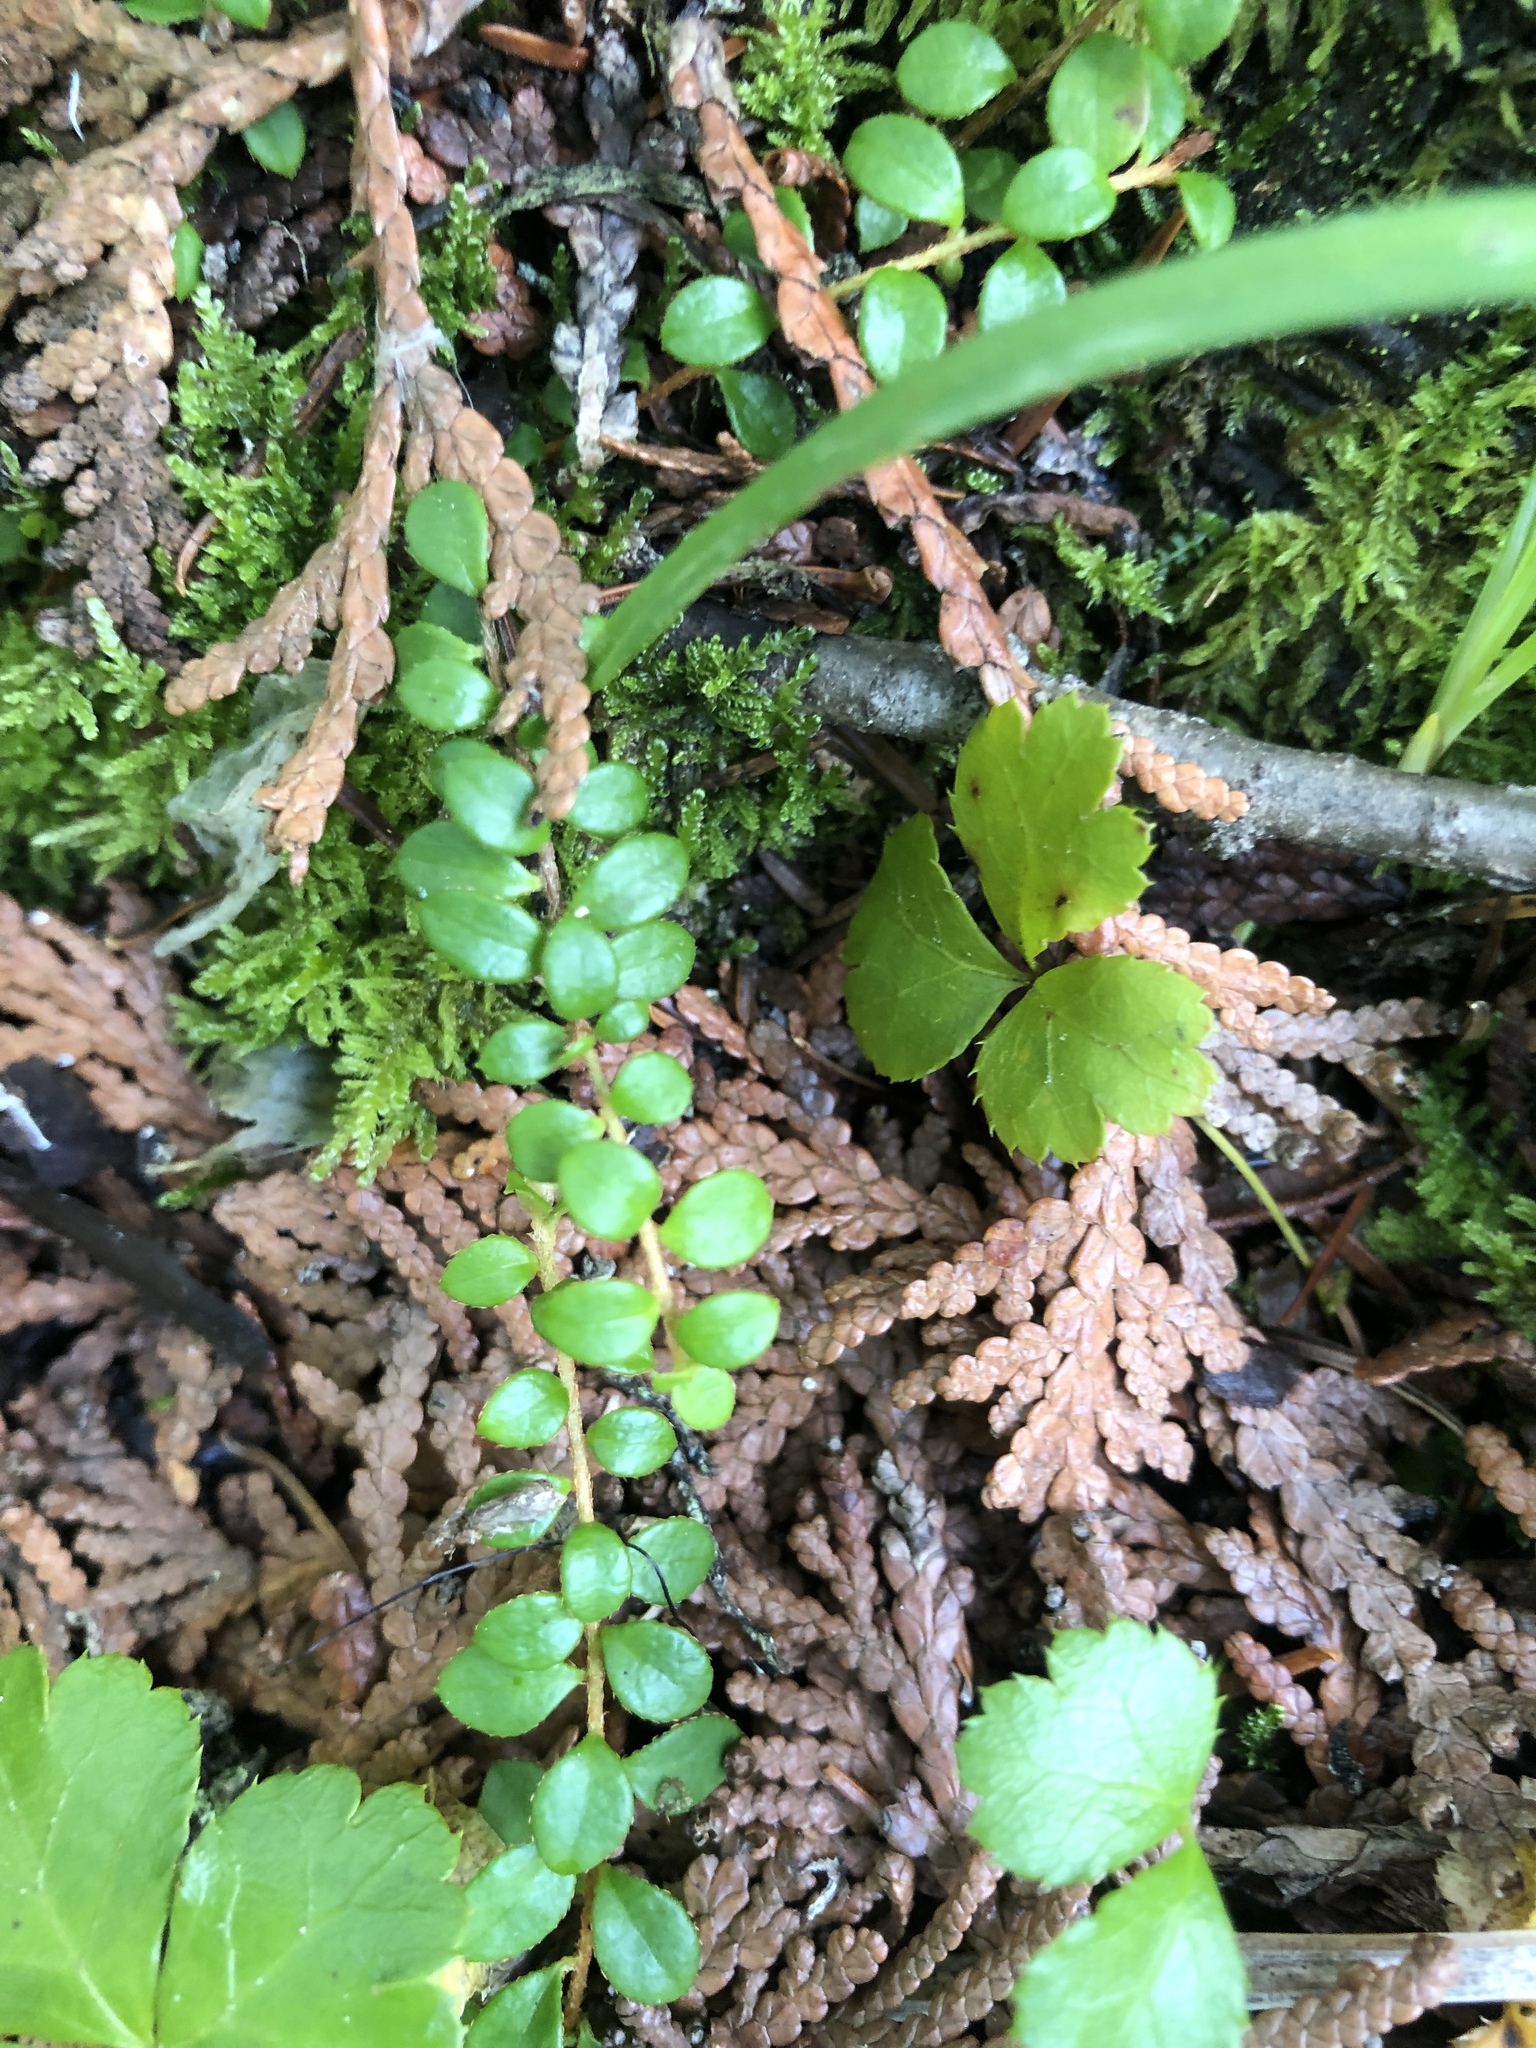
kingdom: Plantae
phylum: Tracheophyta
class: Magnoliopsida
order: Ericales
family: Ericaceae
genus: Gaultheria
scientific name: Gaultheria hispidula
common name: Cancer wintergreen
